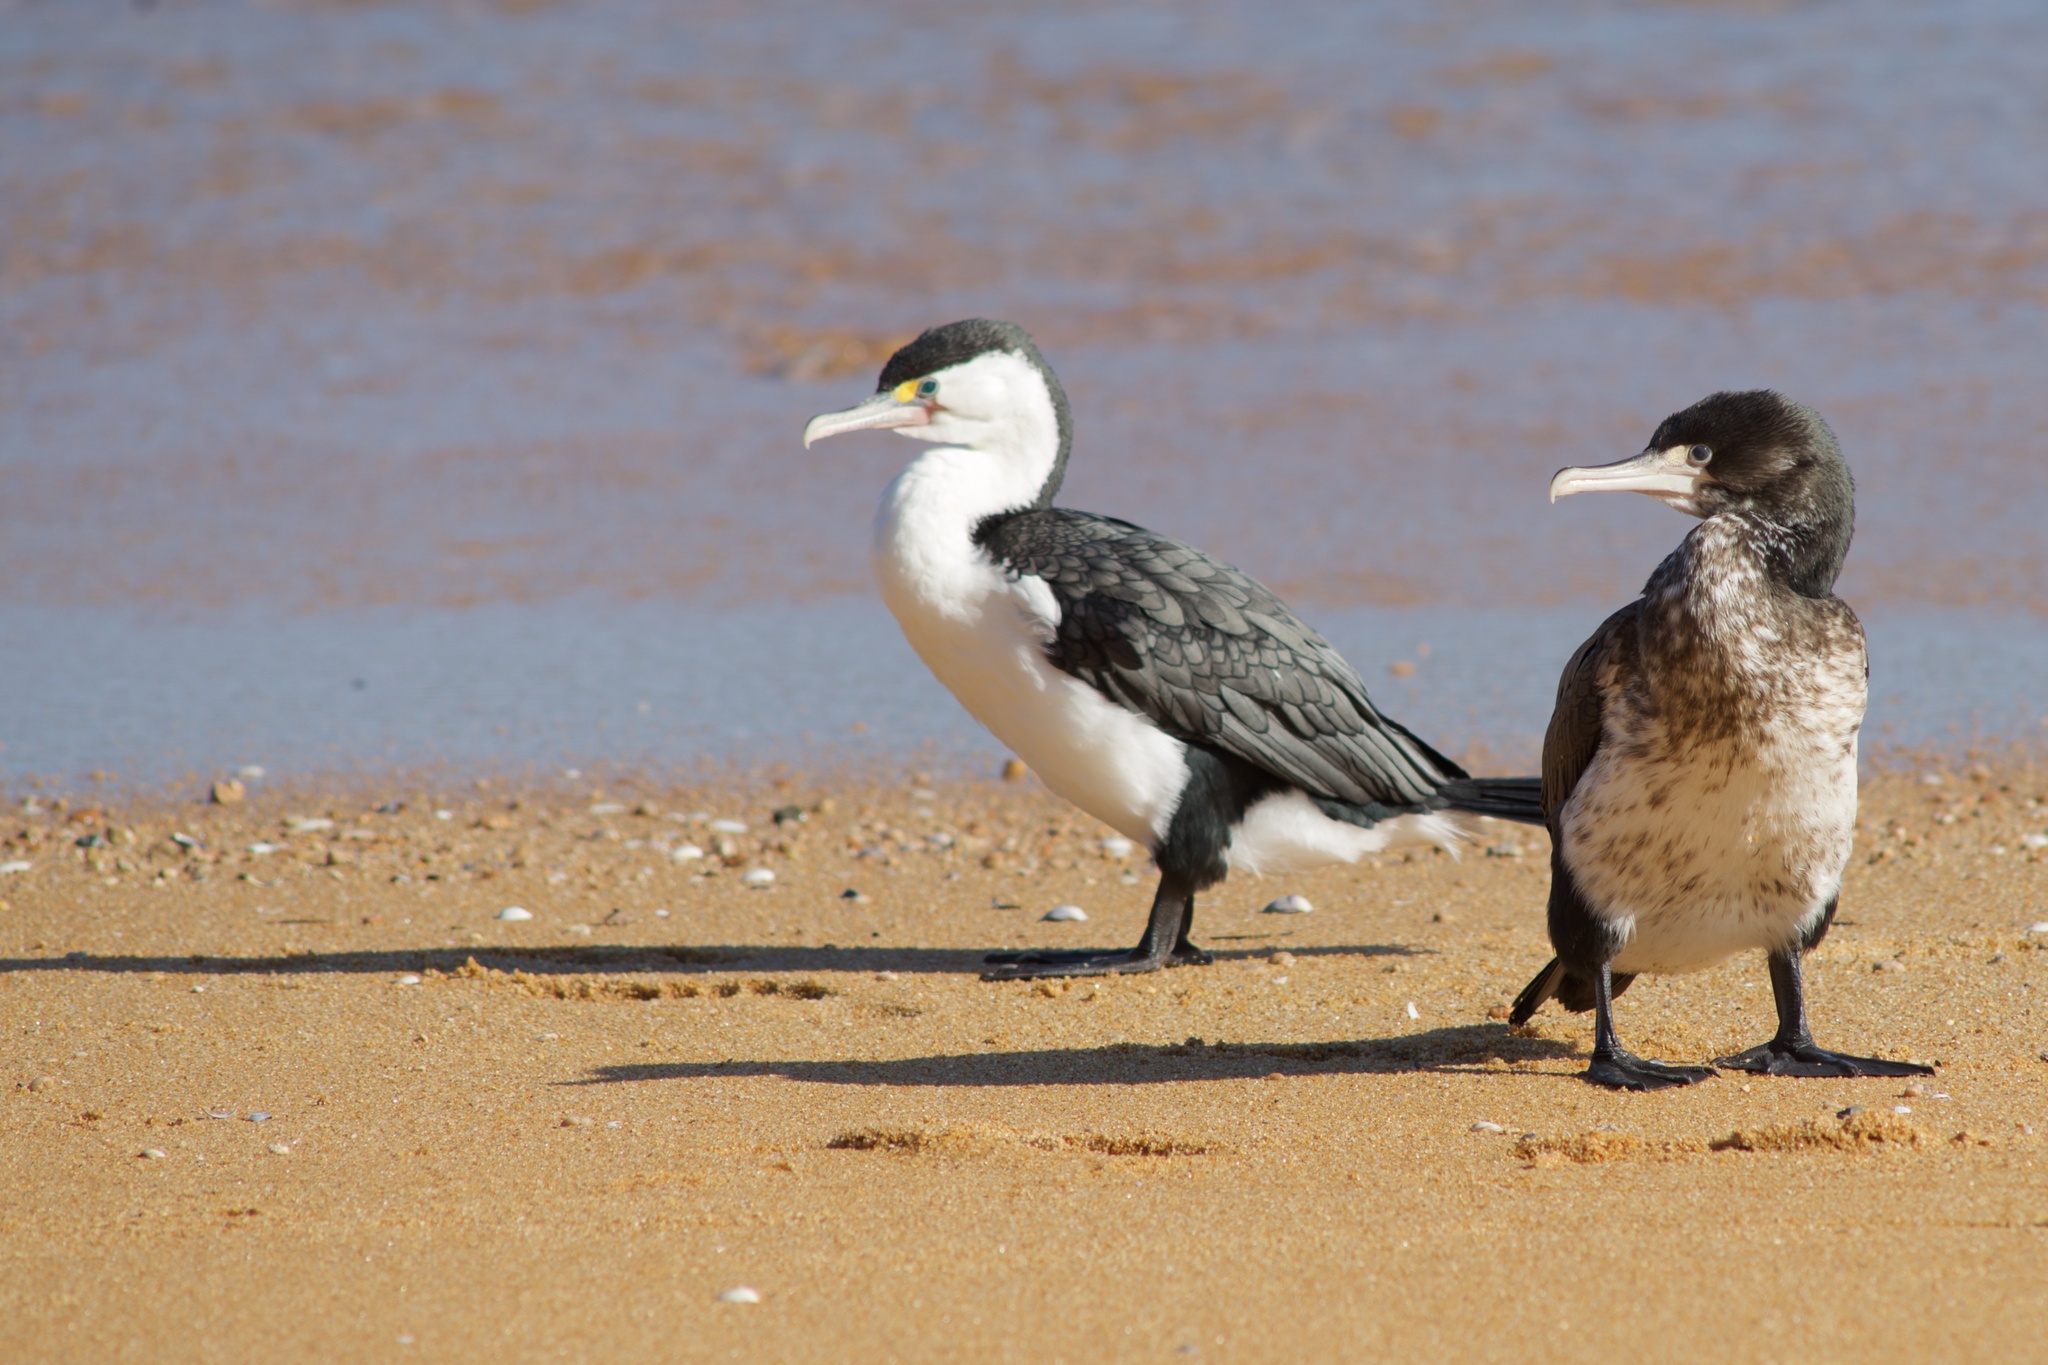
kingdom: Animalia
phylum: Chordata
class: Aves
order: Suliformes
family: Phalacrocoracidae
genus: Phalacrocorax
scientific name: Phalacrocorax varius
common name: Pied cormorant
